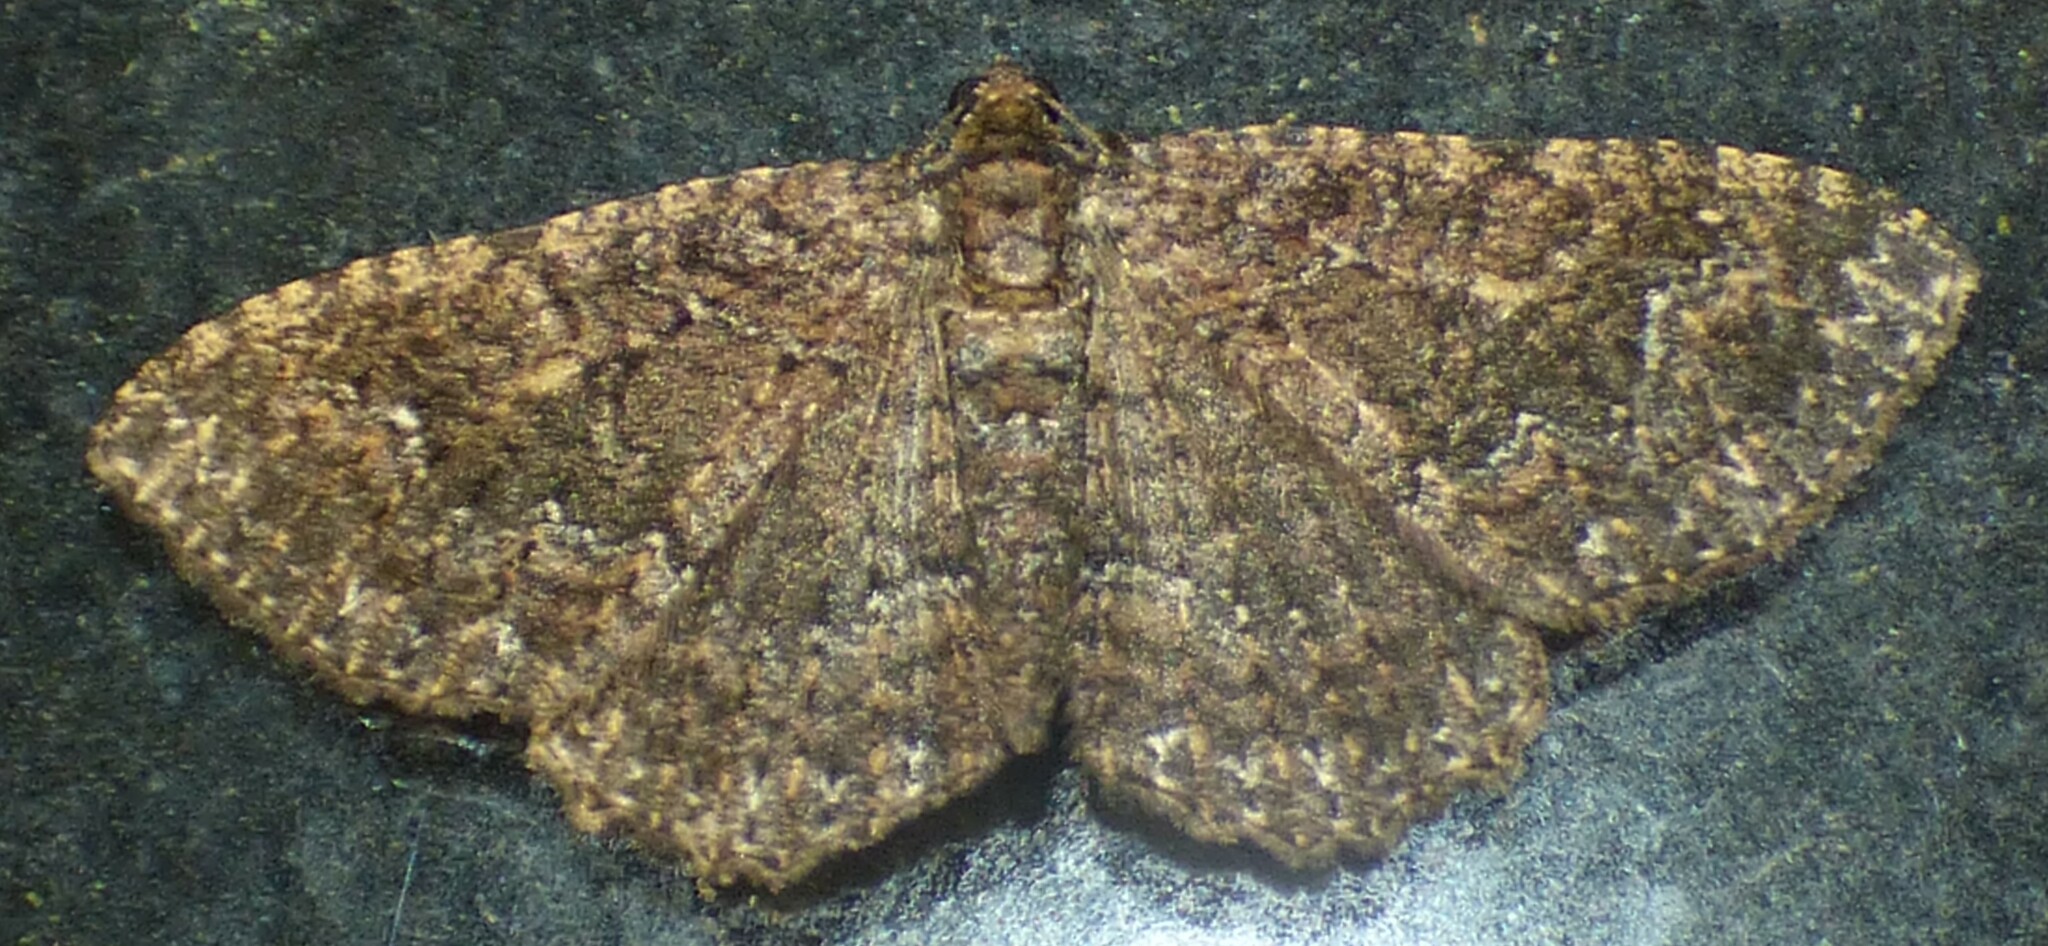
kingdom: Animalia
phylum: Arthropoda
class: Insecta
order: Lepidoptera
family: Geometridae
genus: Disclisioprocta
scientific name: Disclisioprocta stellata
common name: Somber carpet
